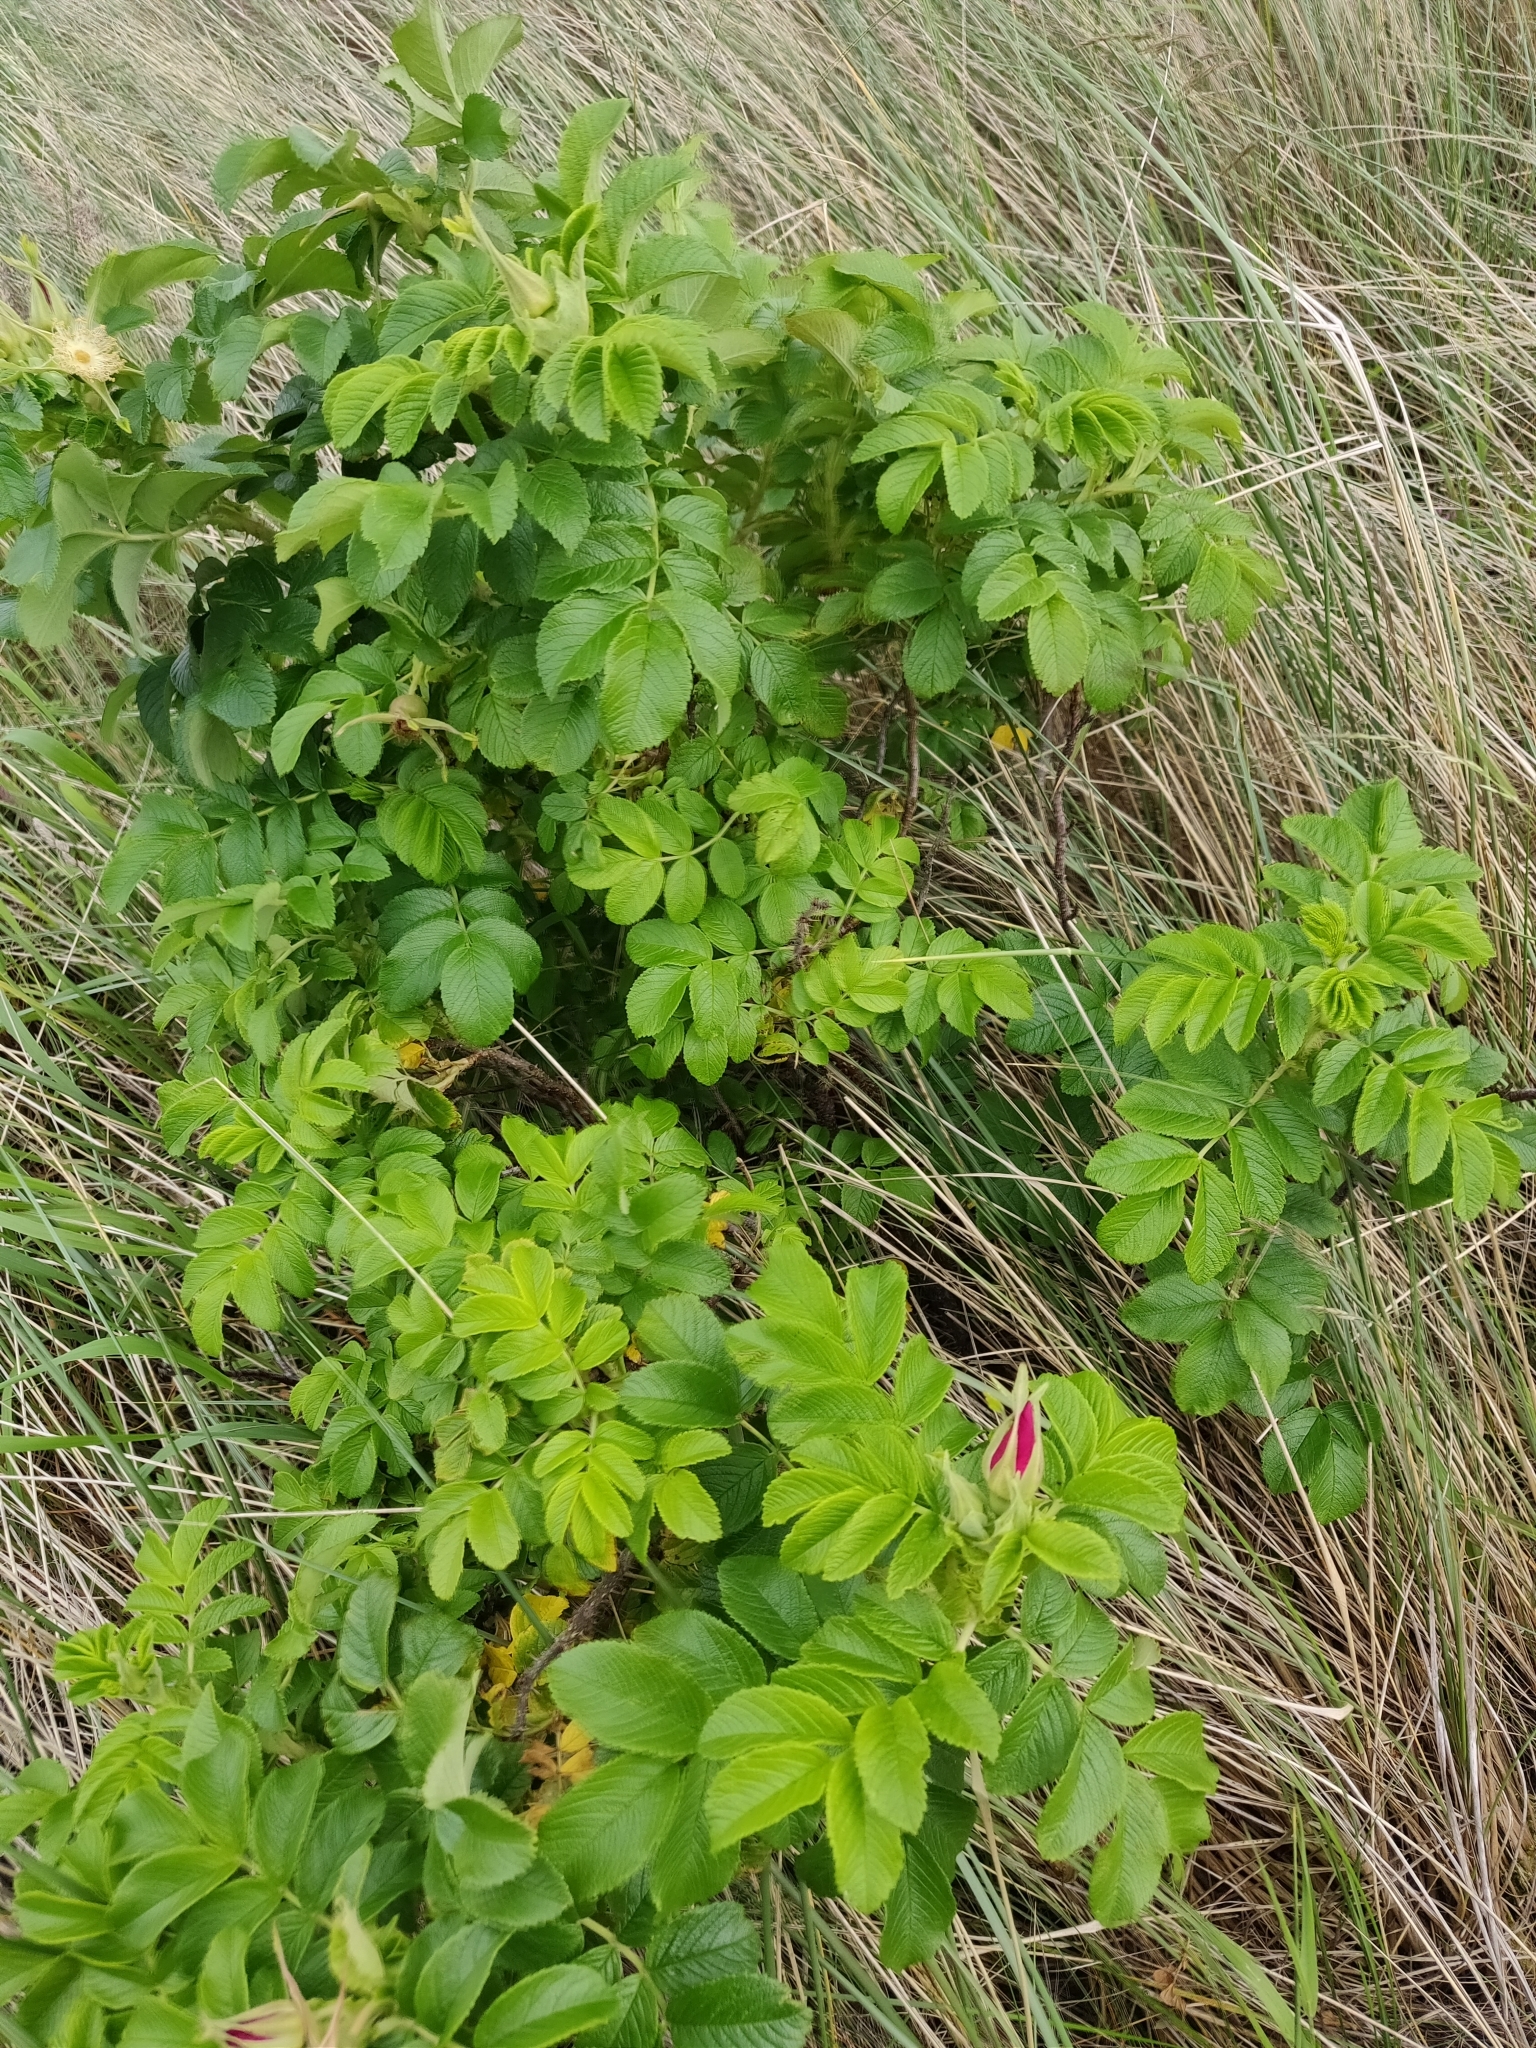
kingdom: Plantae
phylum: Tracheophyta
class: Magnoliopsida
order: Rosales
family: Rosaceae
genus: Rosa
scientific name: Rosa rugosa
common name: Japanese rose
